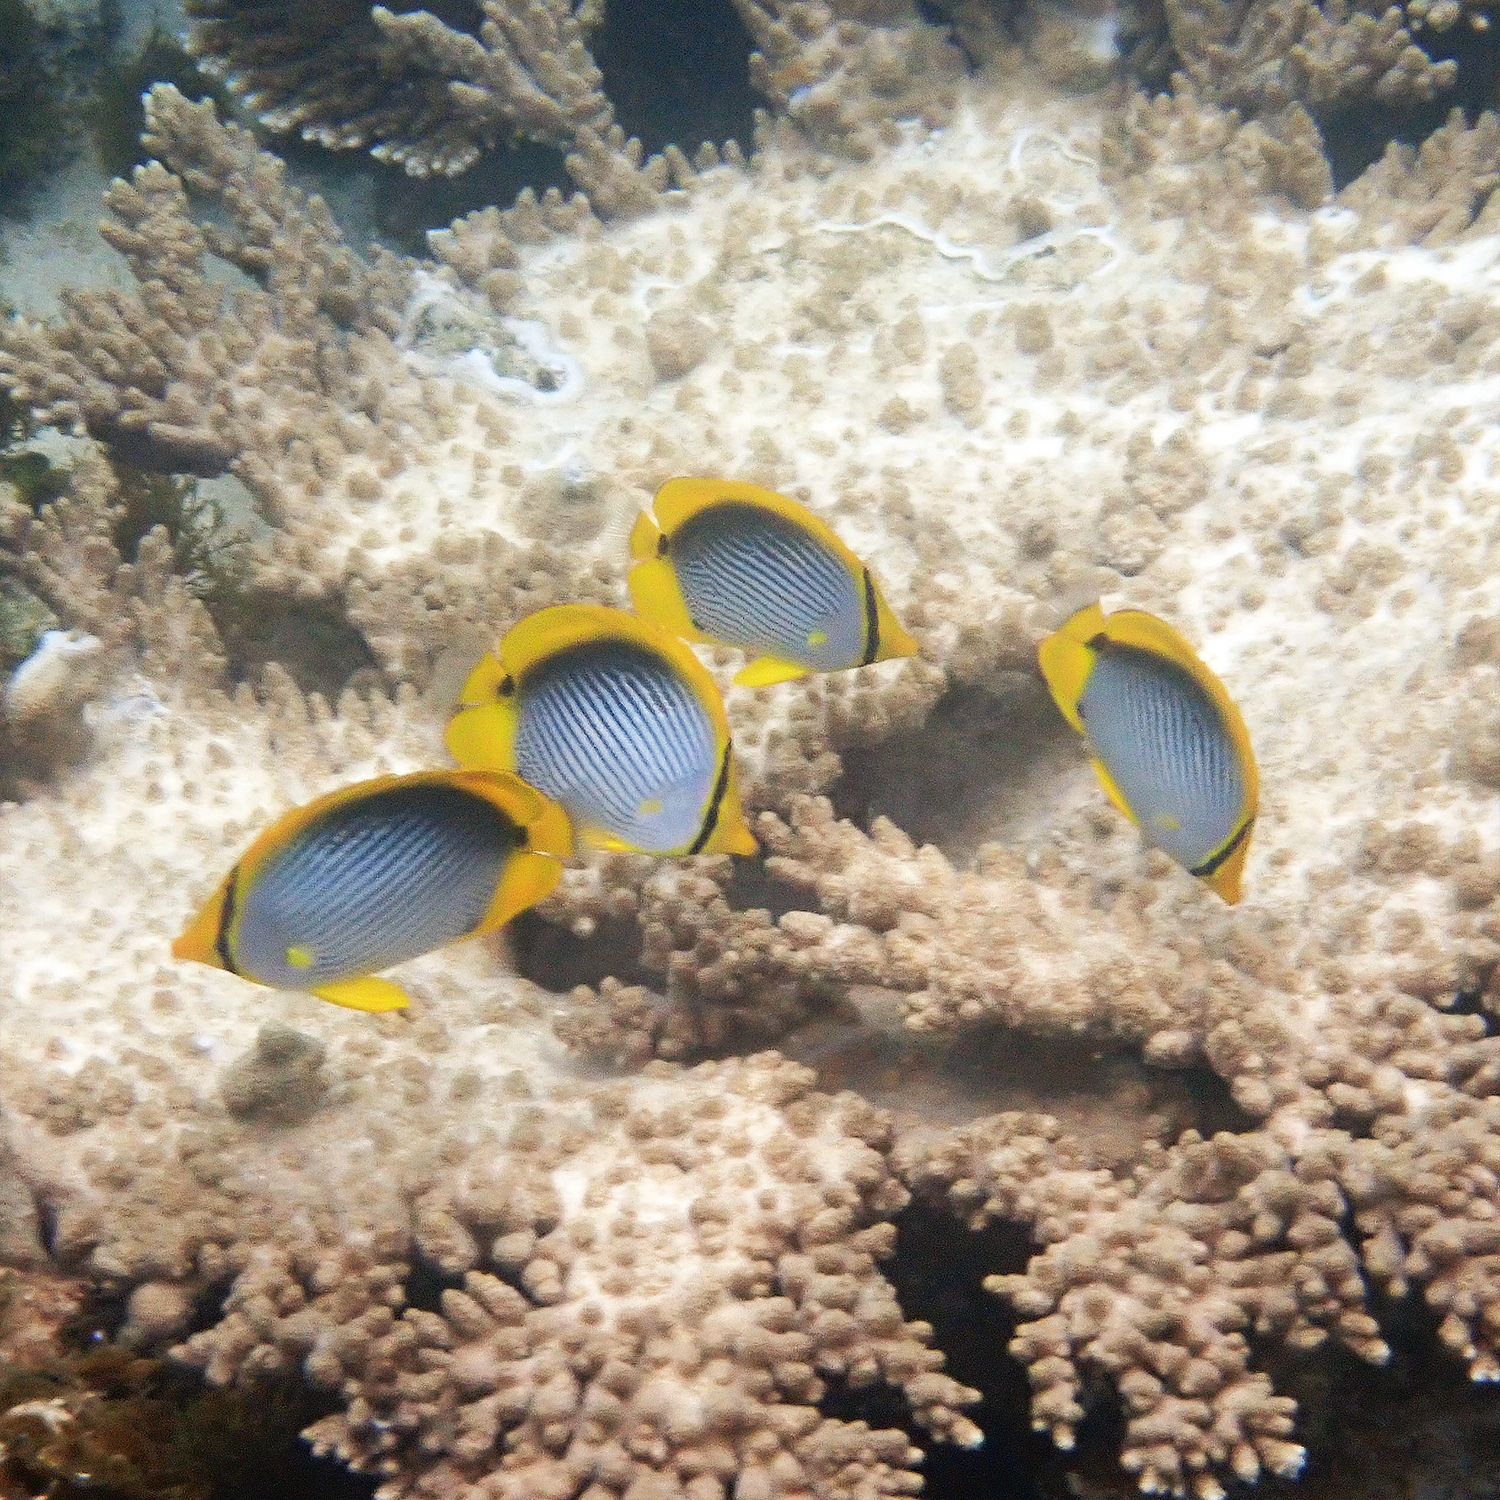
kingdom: Animalia
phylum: Chordata
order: Perciformes
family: Chaetodontidae
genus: Chaetodon
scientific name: Chaetodon melannotus
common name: Blackback butterflyfish
